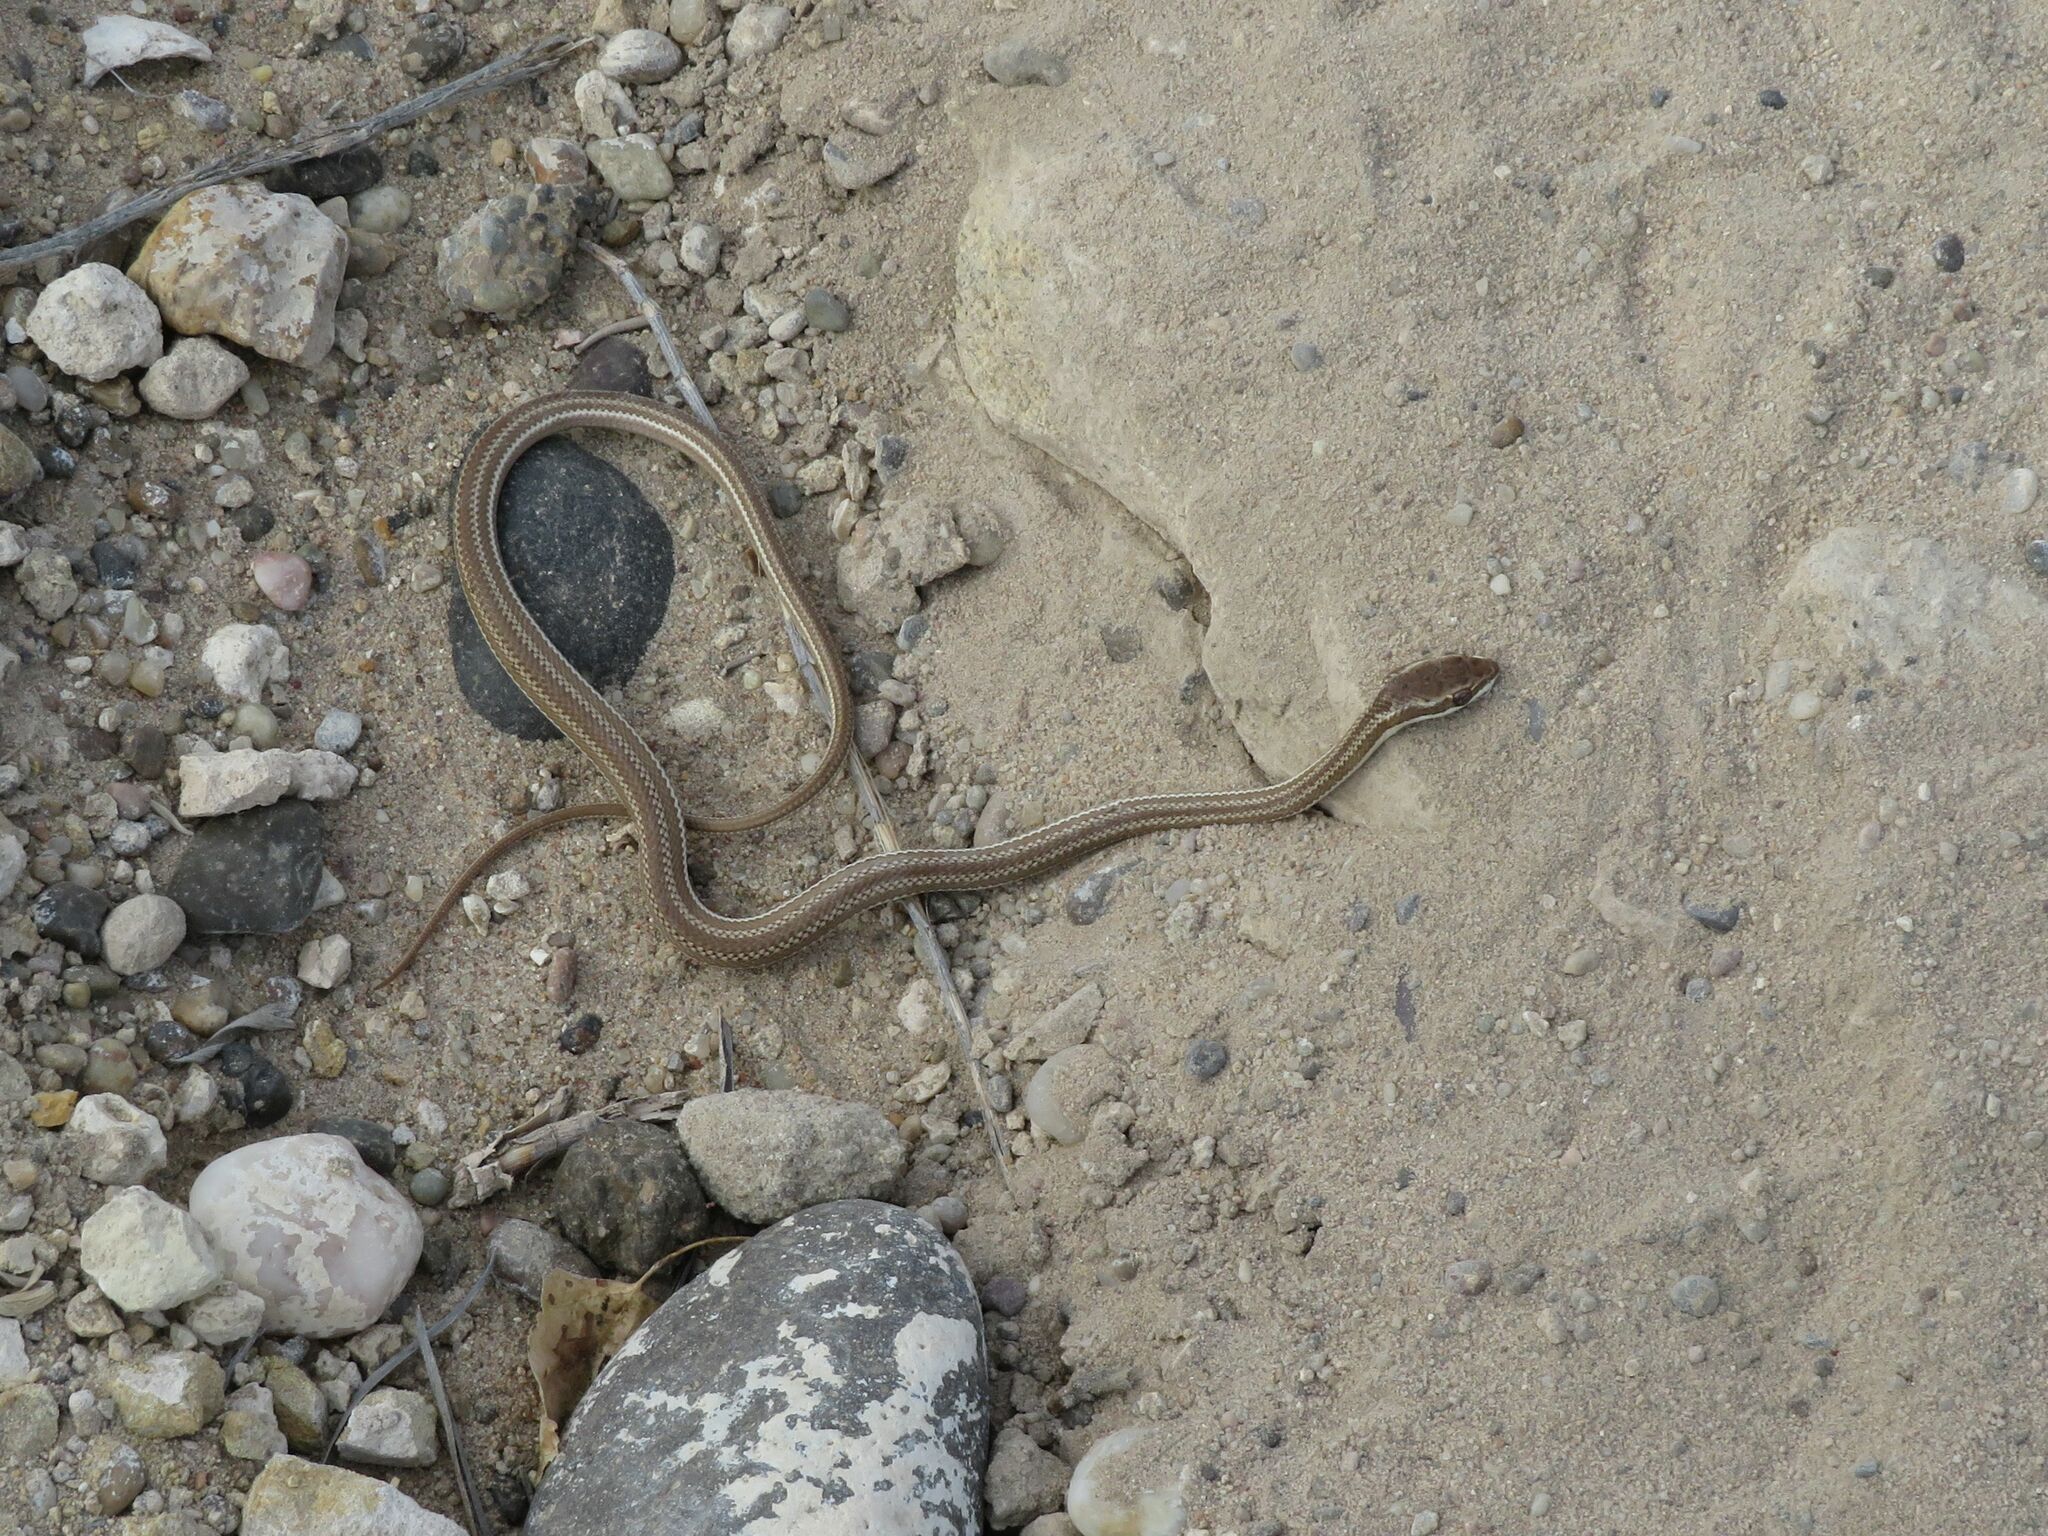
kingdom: Animalia
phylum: Chordata
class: Squamata
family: Colubridae
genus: Philodryas
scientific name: Philodryas trilineata
